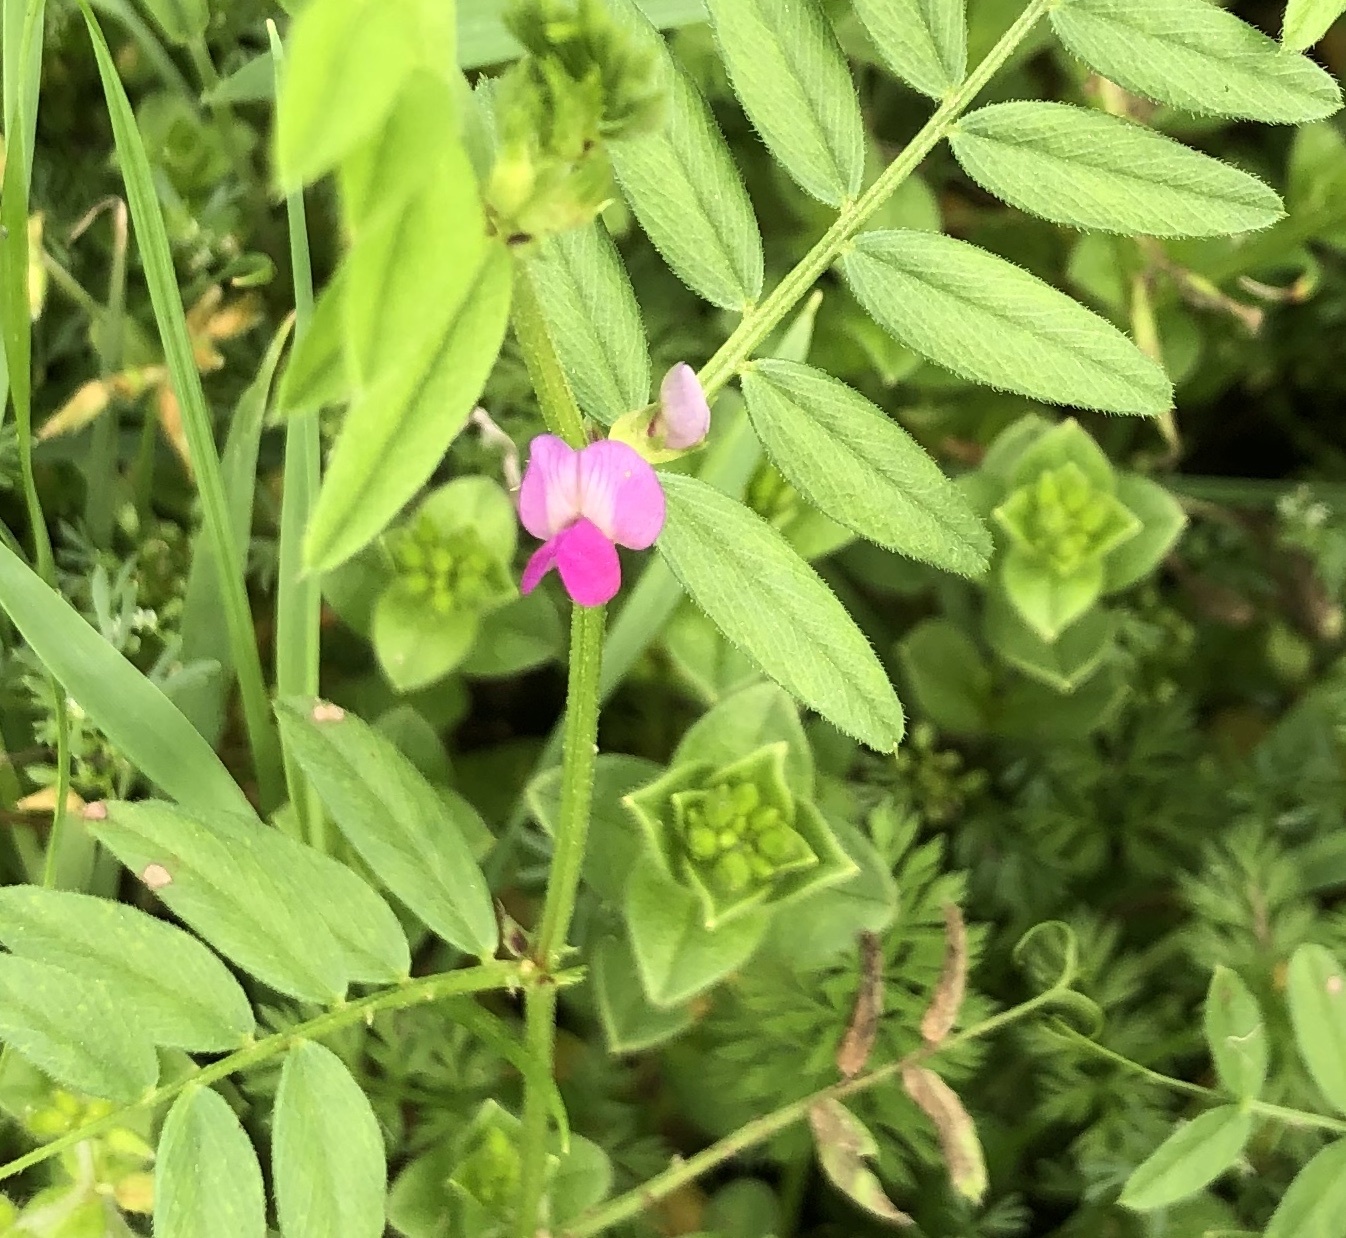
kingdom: Plantae
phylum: Tracheophyta
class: Magnoliopsida
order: Fabales
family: Fabaceae
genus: Vicia
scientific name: Vicia sativa
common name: Garden vetch
